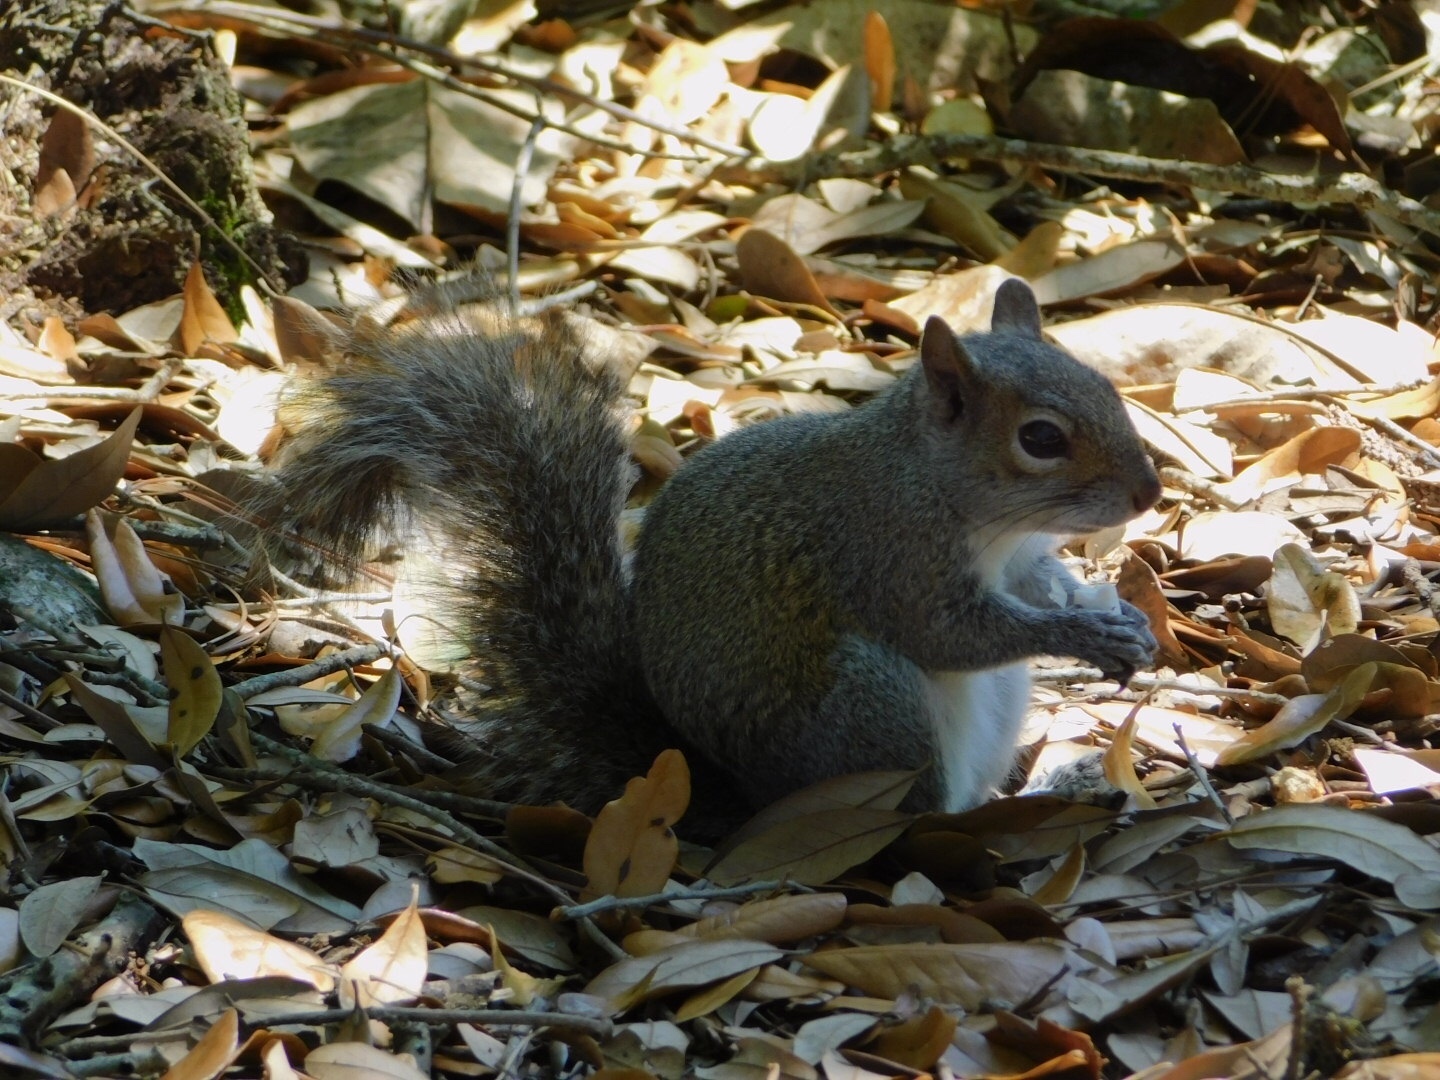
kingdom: Animalia
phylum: Chordata
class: Mammalia
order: Rodentia
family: Sciuridae
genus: Sciurus
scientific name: Sciurus carolinensis
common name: Eastern gray squirrel
